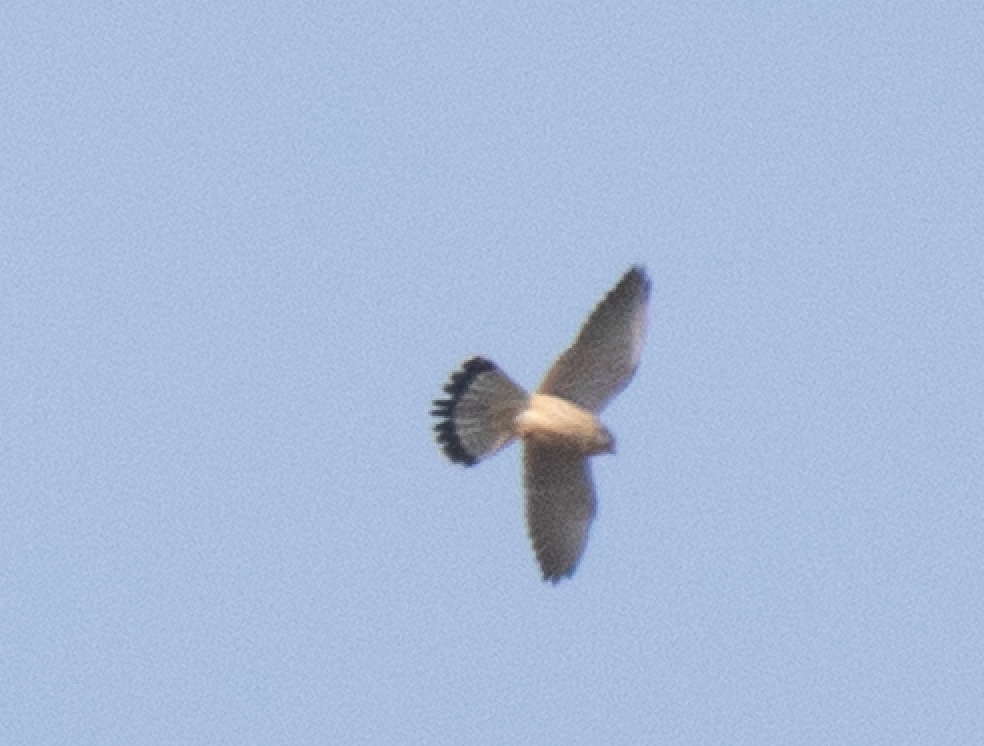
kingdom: Animalia
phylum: Chordata
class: Aves
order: Falconiformes
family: Falconidae
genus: Falco
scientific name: Falco tinnunculus
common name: Common kestrel
